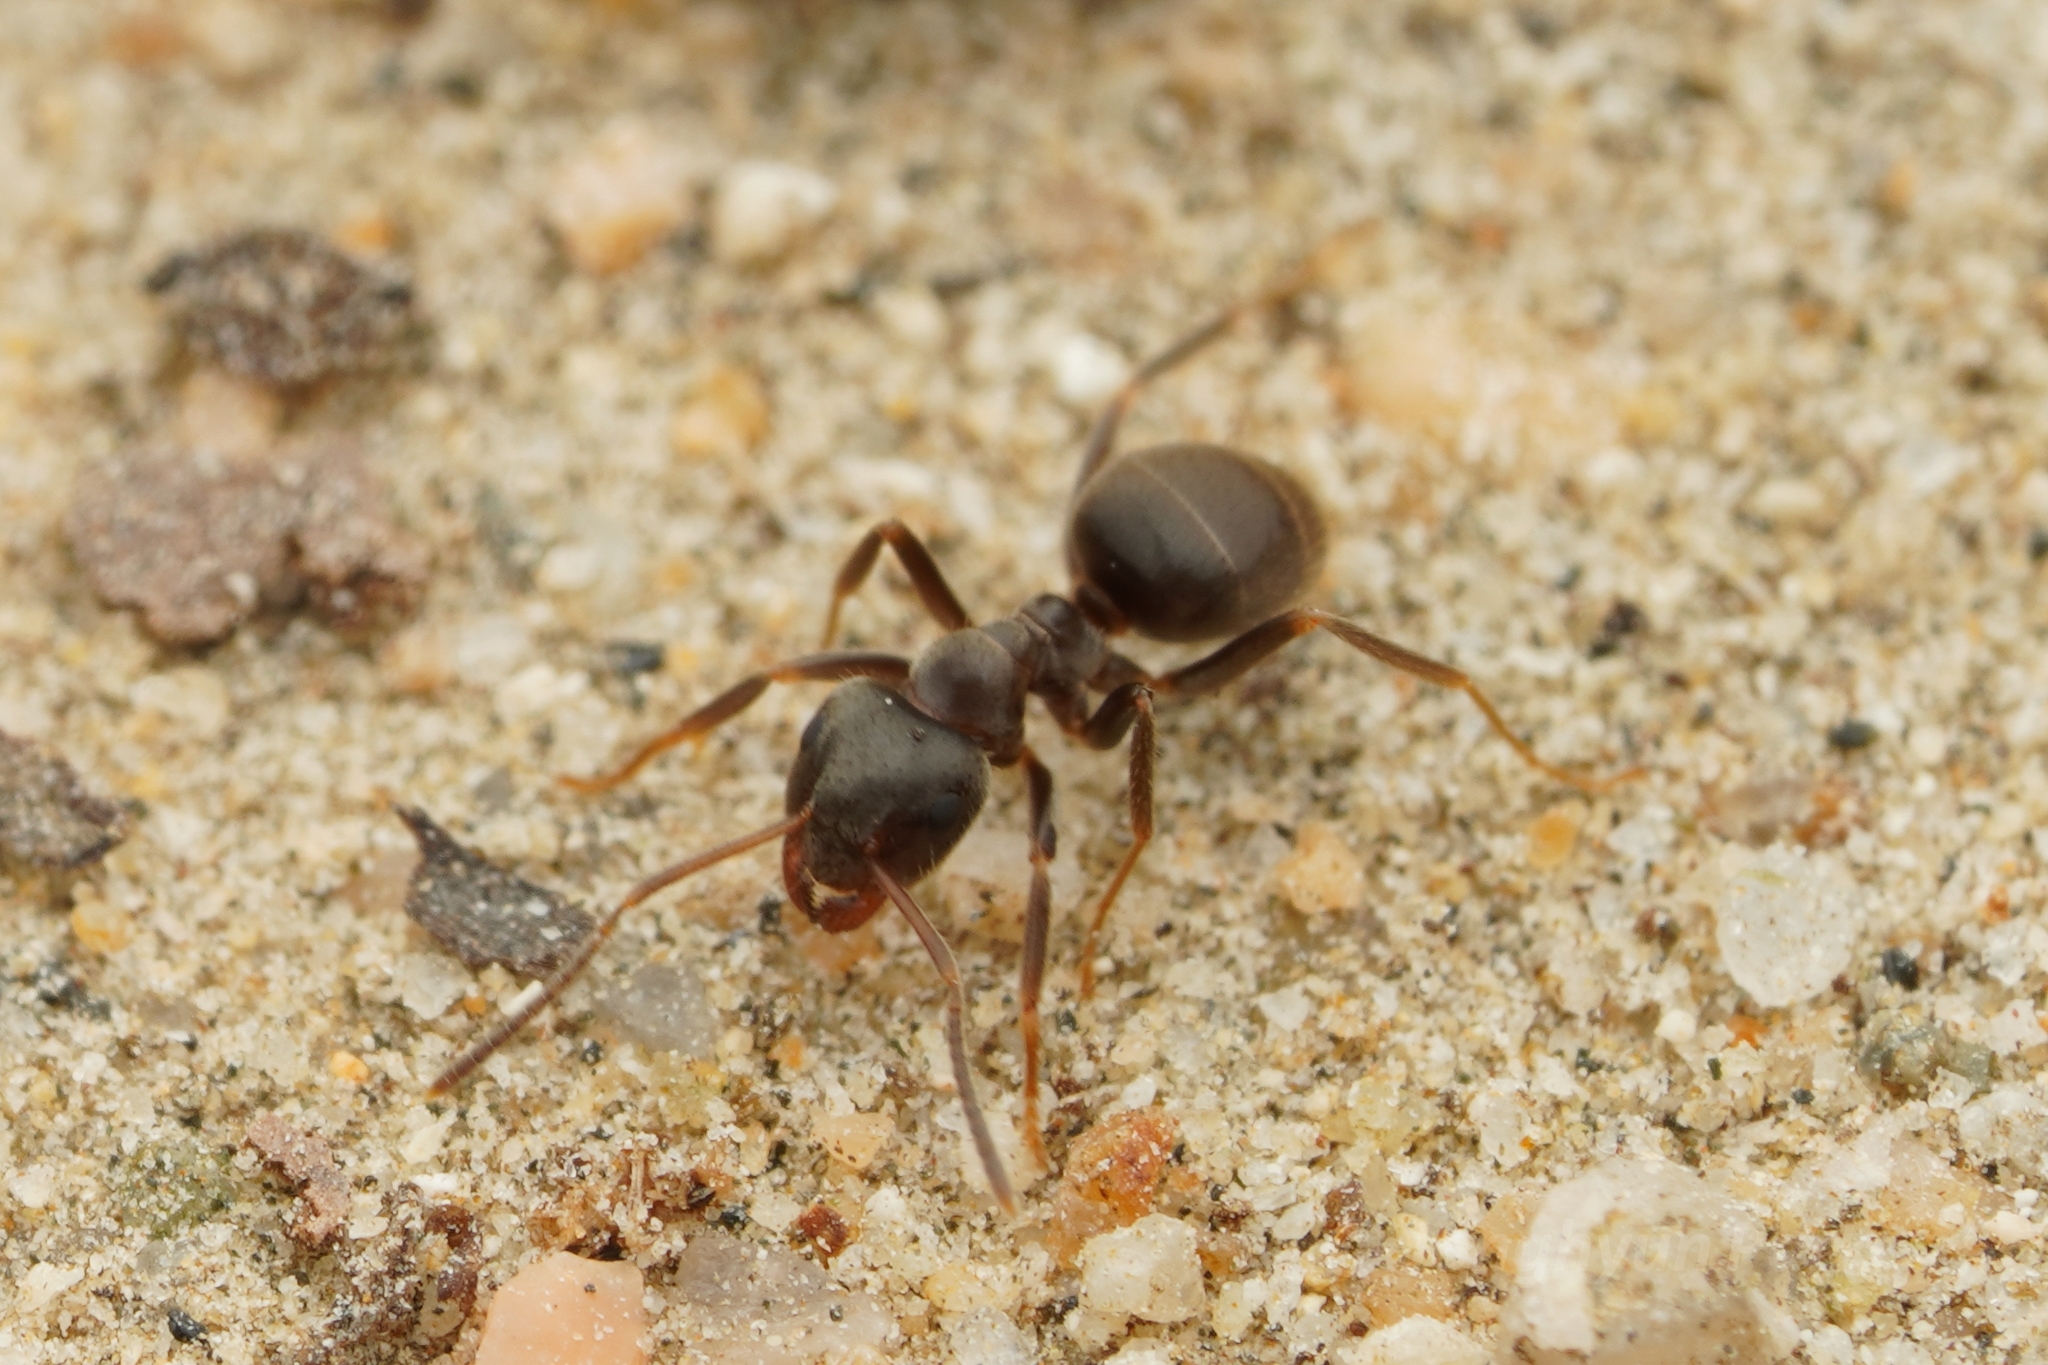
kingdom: Animalia
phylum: Arthropoda
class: Insecta
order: Hymenoptera
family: Formicidae
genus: Lasius
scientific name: Lasius japonicus
